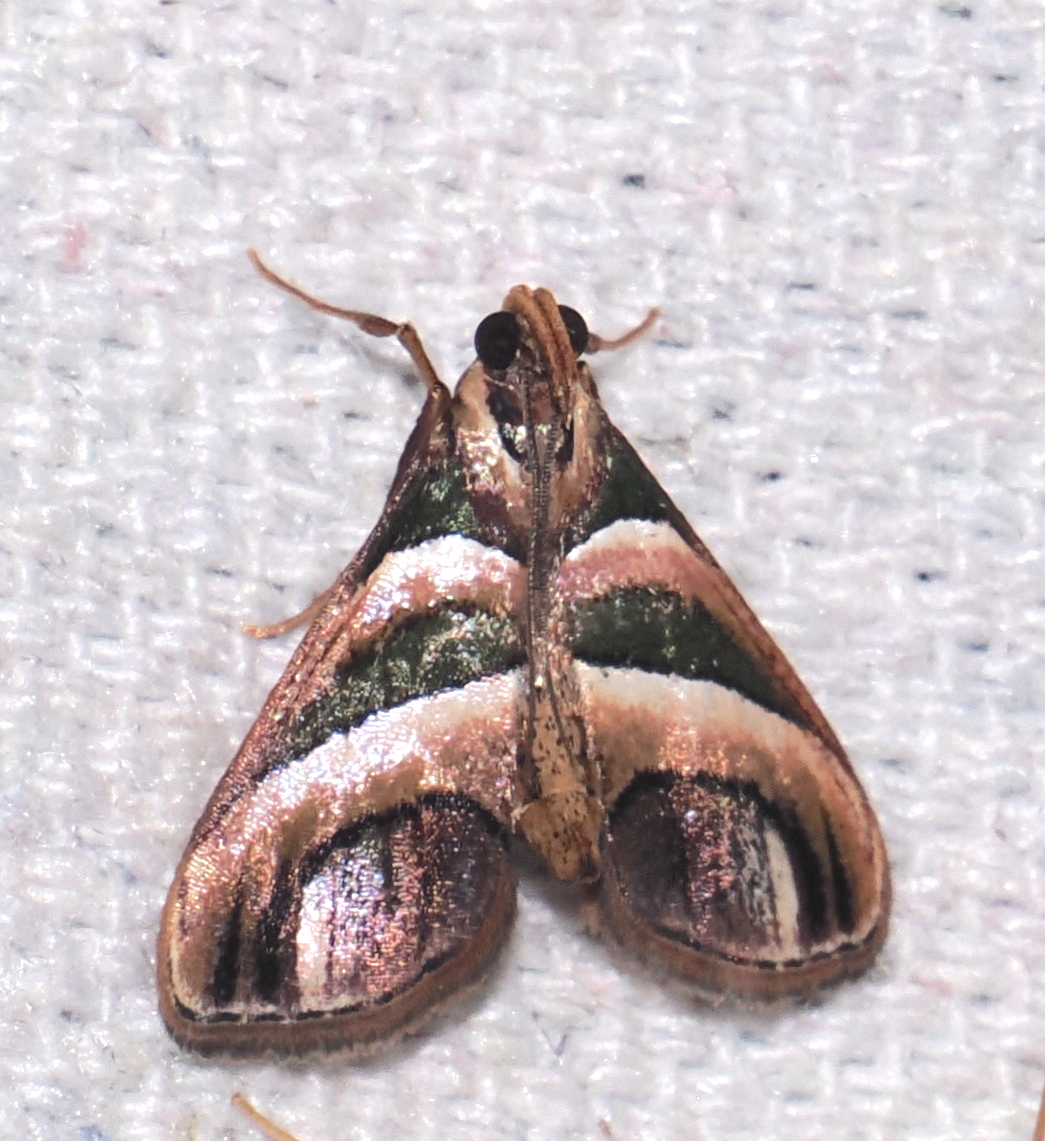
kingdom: Animalia
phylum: Arthropoda
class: Insecta
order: Lepidoptera
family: Pyralidae
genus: Incarcha
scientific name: Incarcha argentilinea
